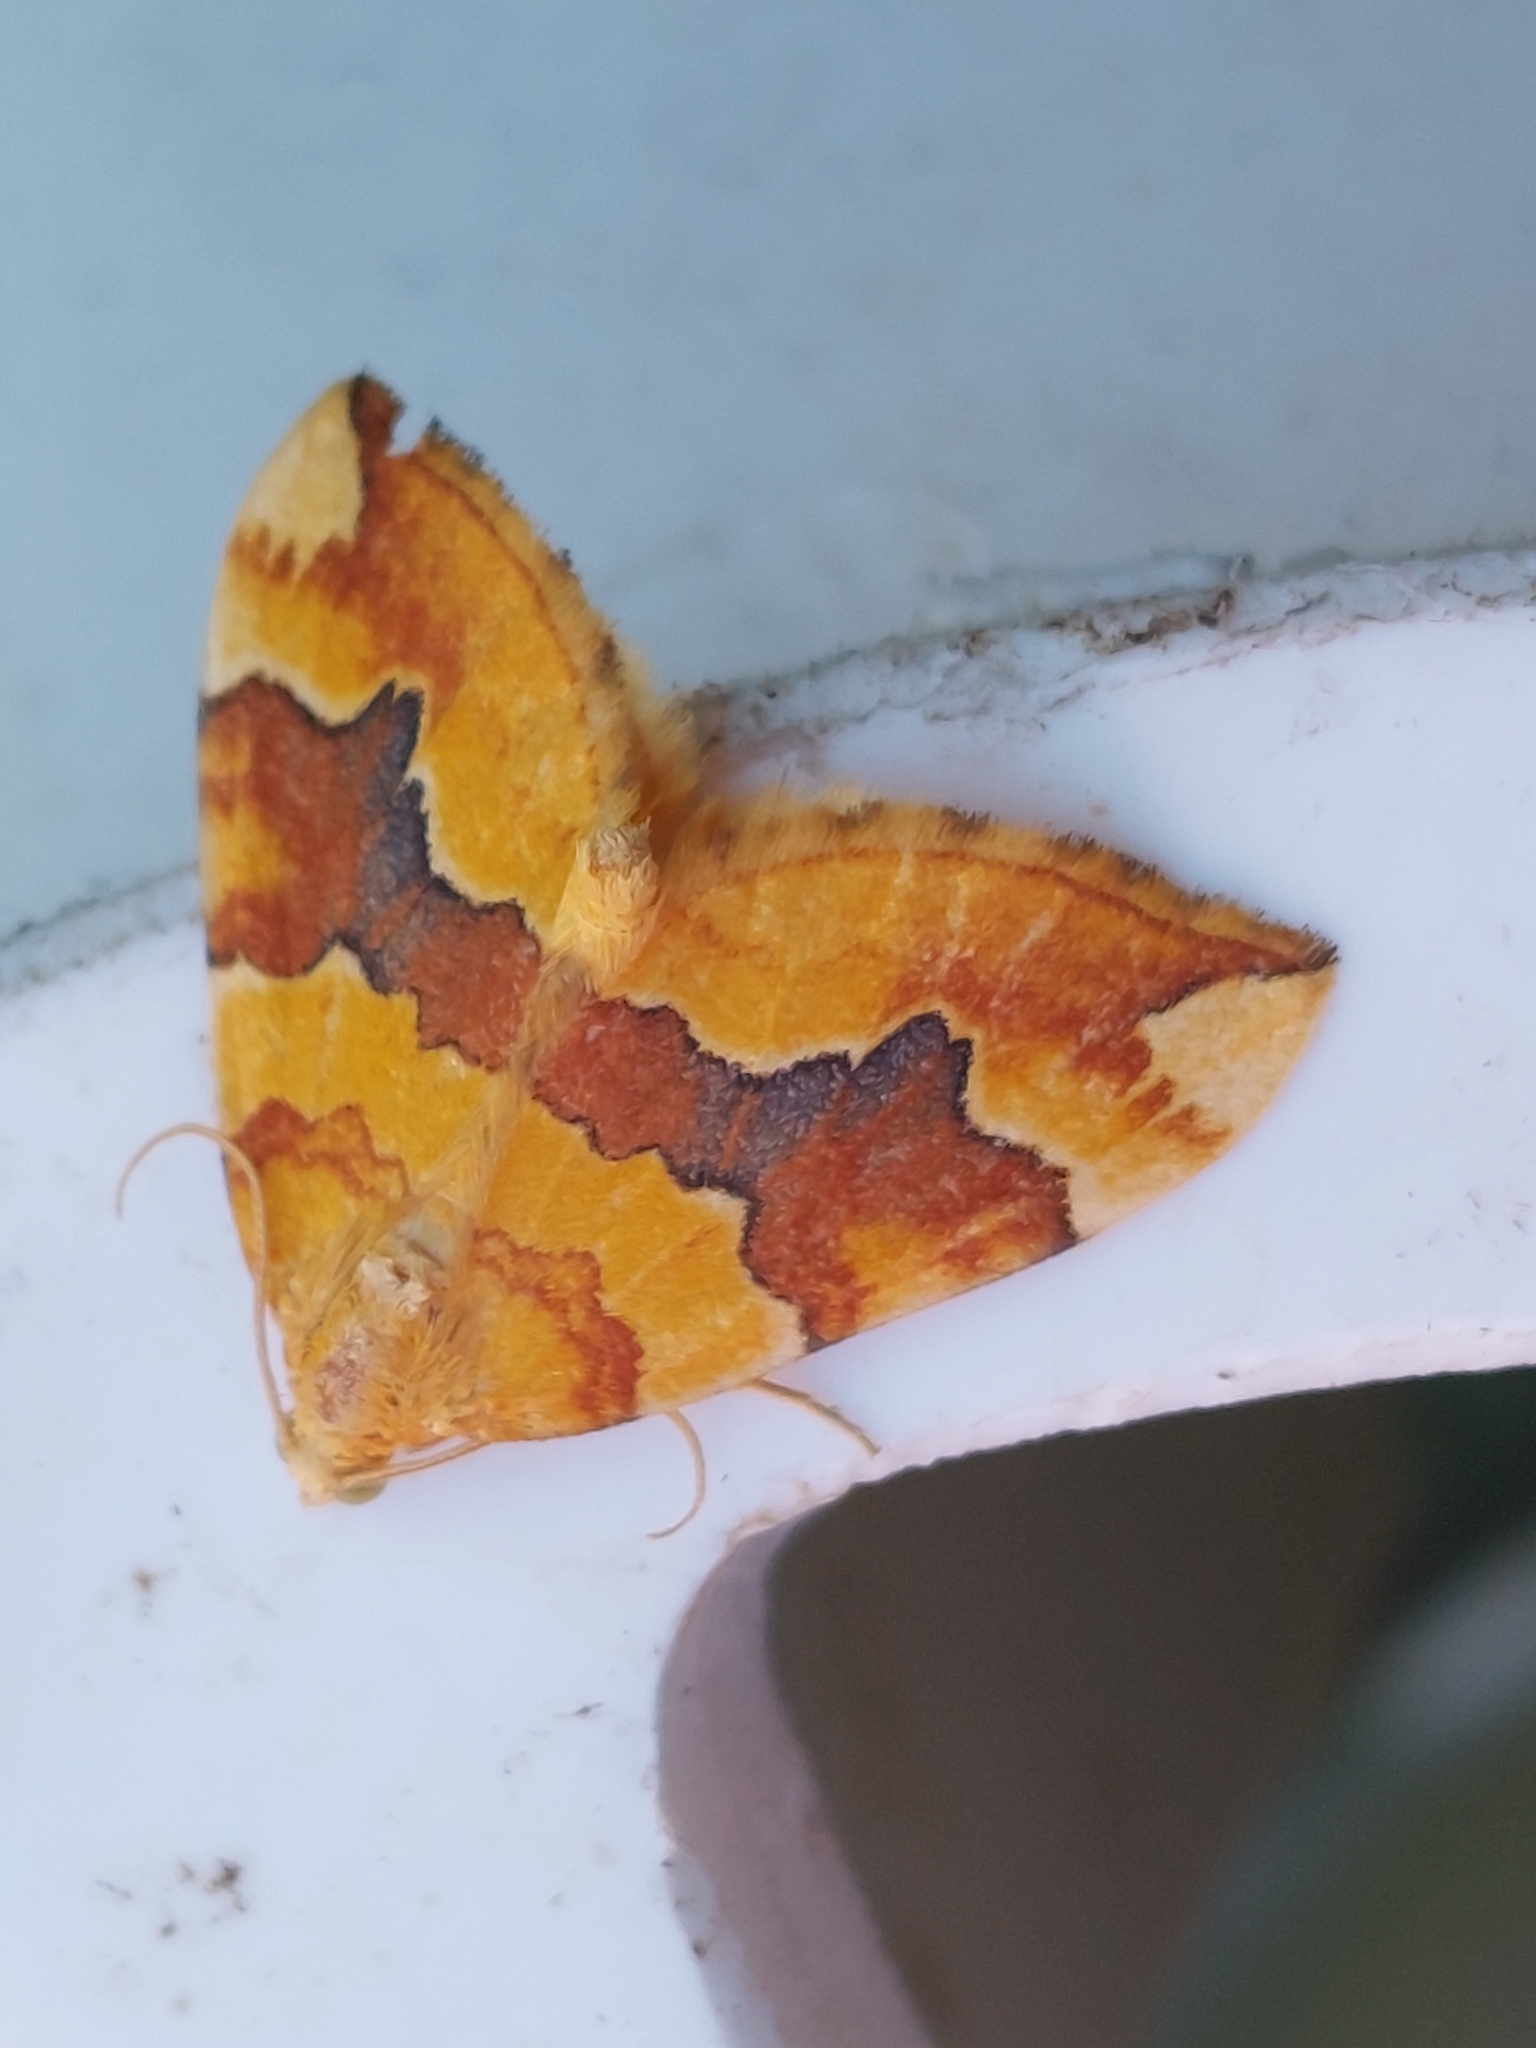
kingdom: Animalia
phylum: Arthropoda
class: Insecta
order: Lepidoptera
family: Geometridae
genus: Cidaria
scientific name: Cidaria fulvata
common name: Barred yellow
